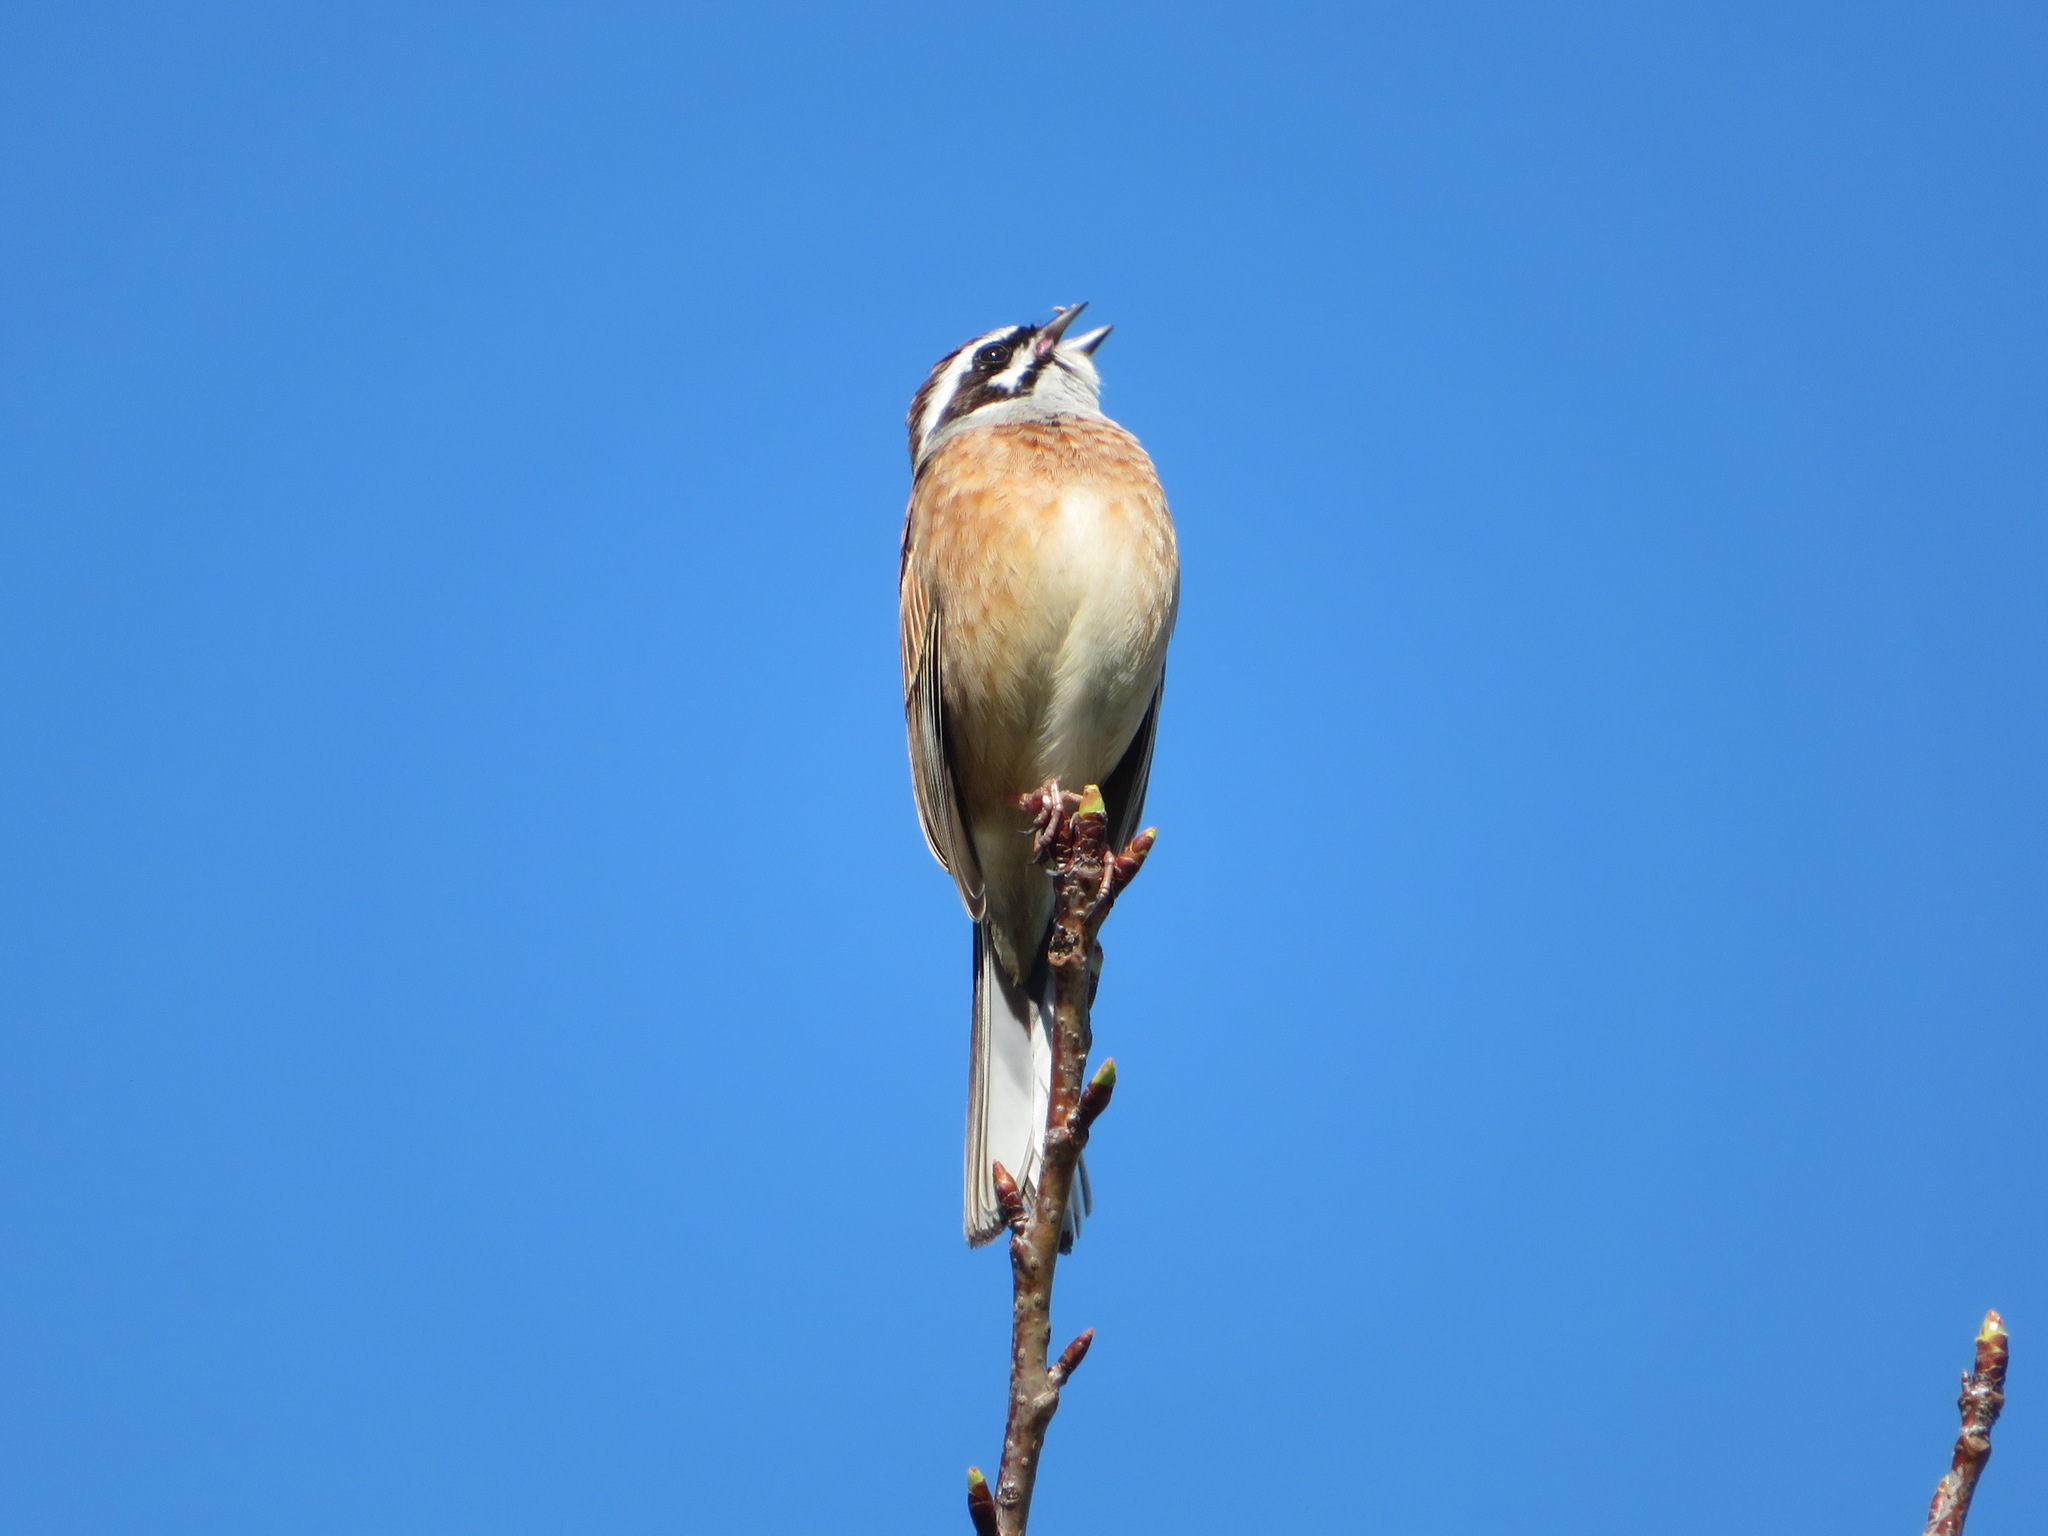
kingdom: Animalia
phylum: Chordata
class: Aves
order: Passeriformes
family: Emberizidae
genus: Emberiza
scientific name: Emberiza cioides
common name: Meadow bunting
